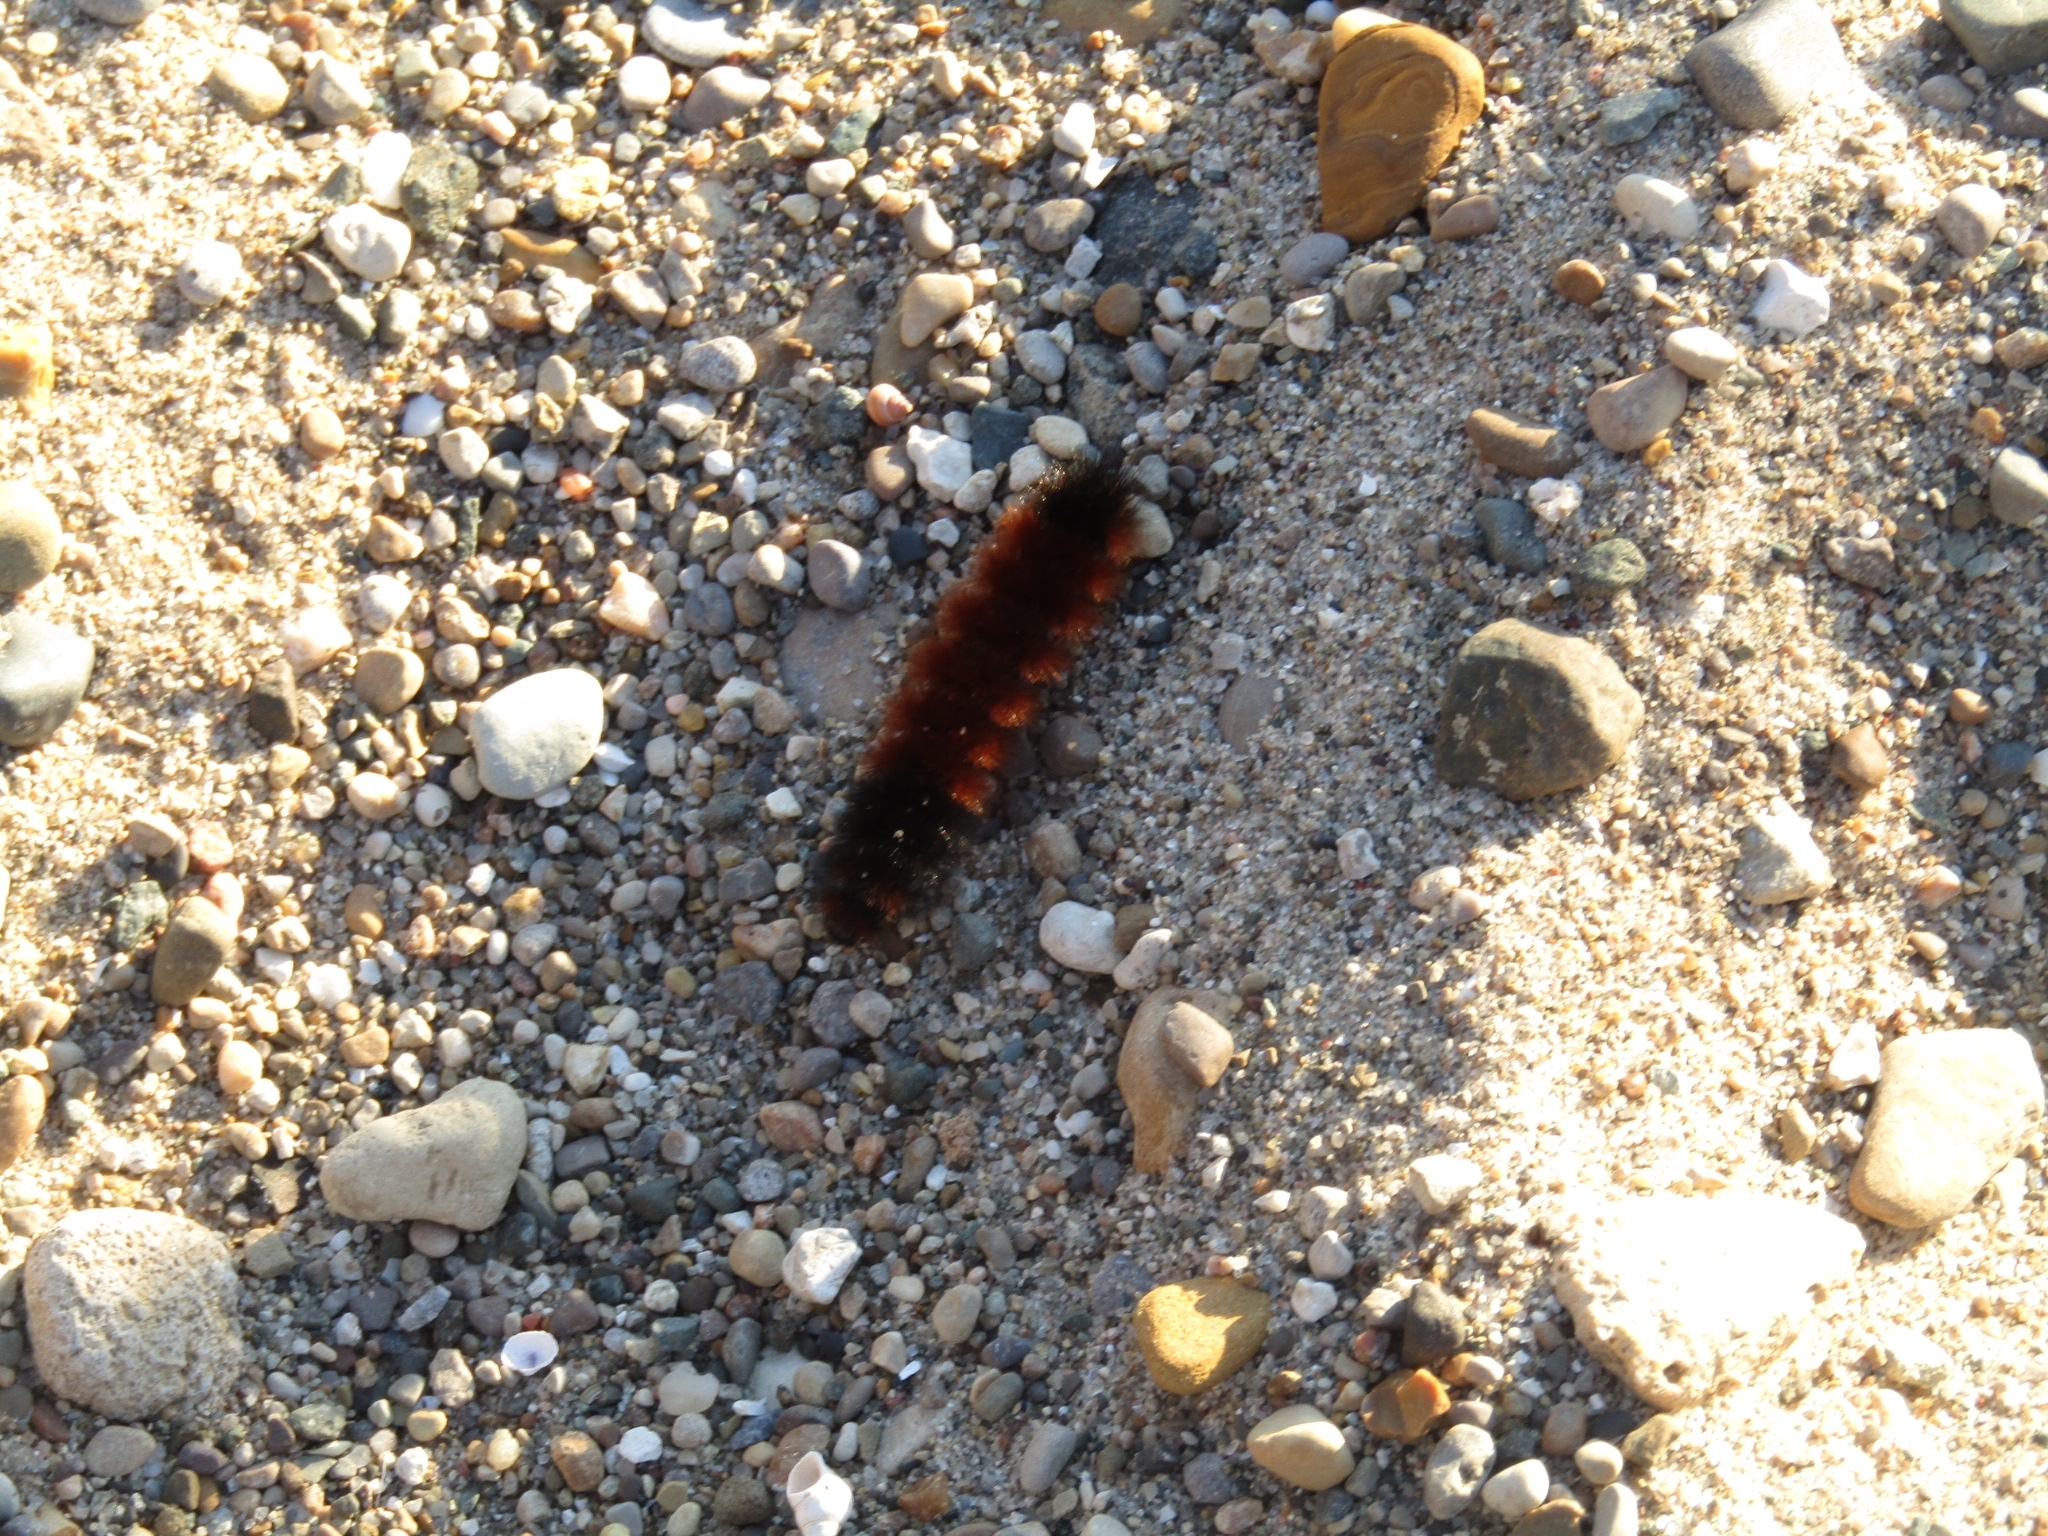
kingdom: Animalia
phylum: Arthropoda
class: Insecta
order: Lepidoptera
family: Erebidae
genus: Pyrrharctia
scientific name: Pyrrharctia isabella
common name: Isabella tiger moth
